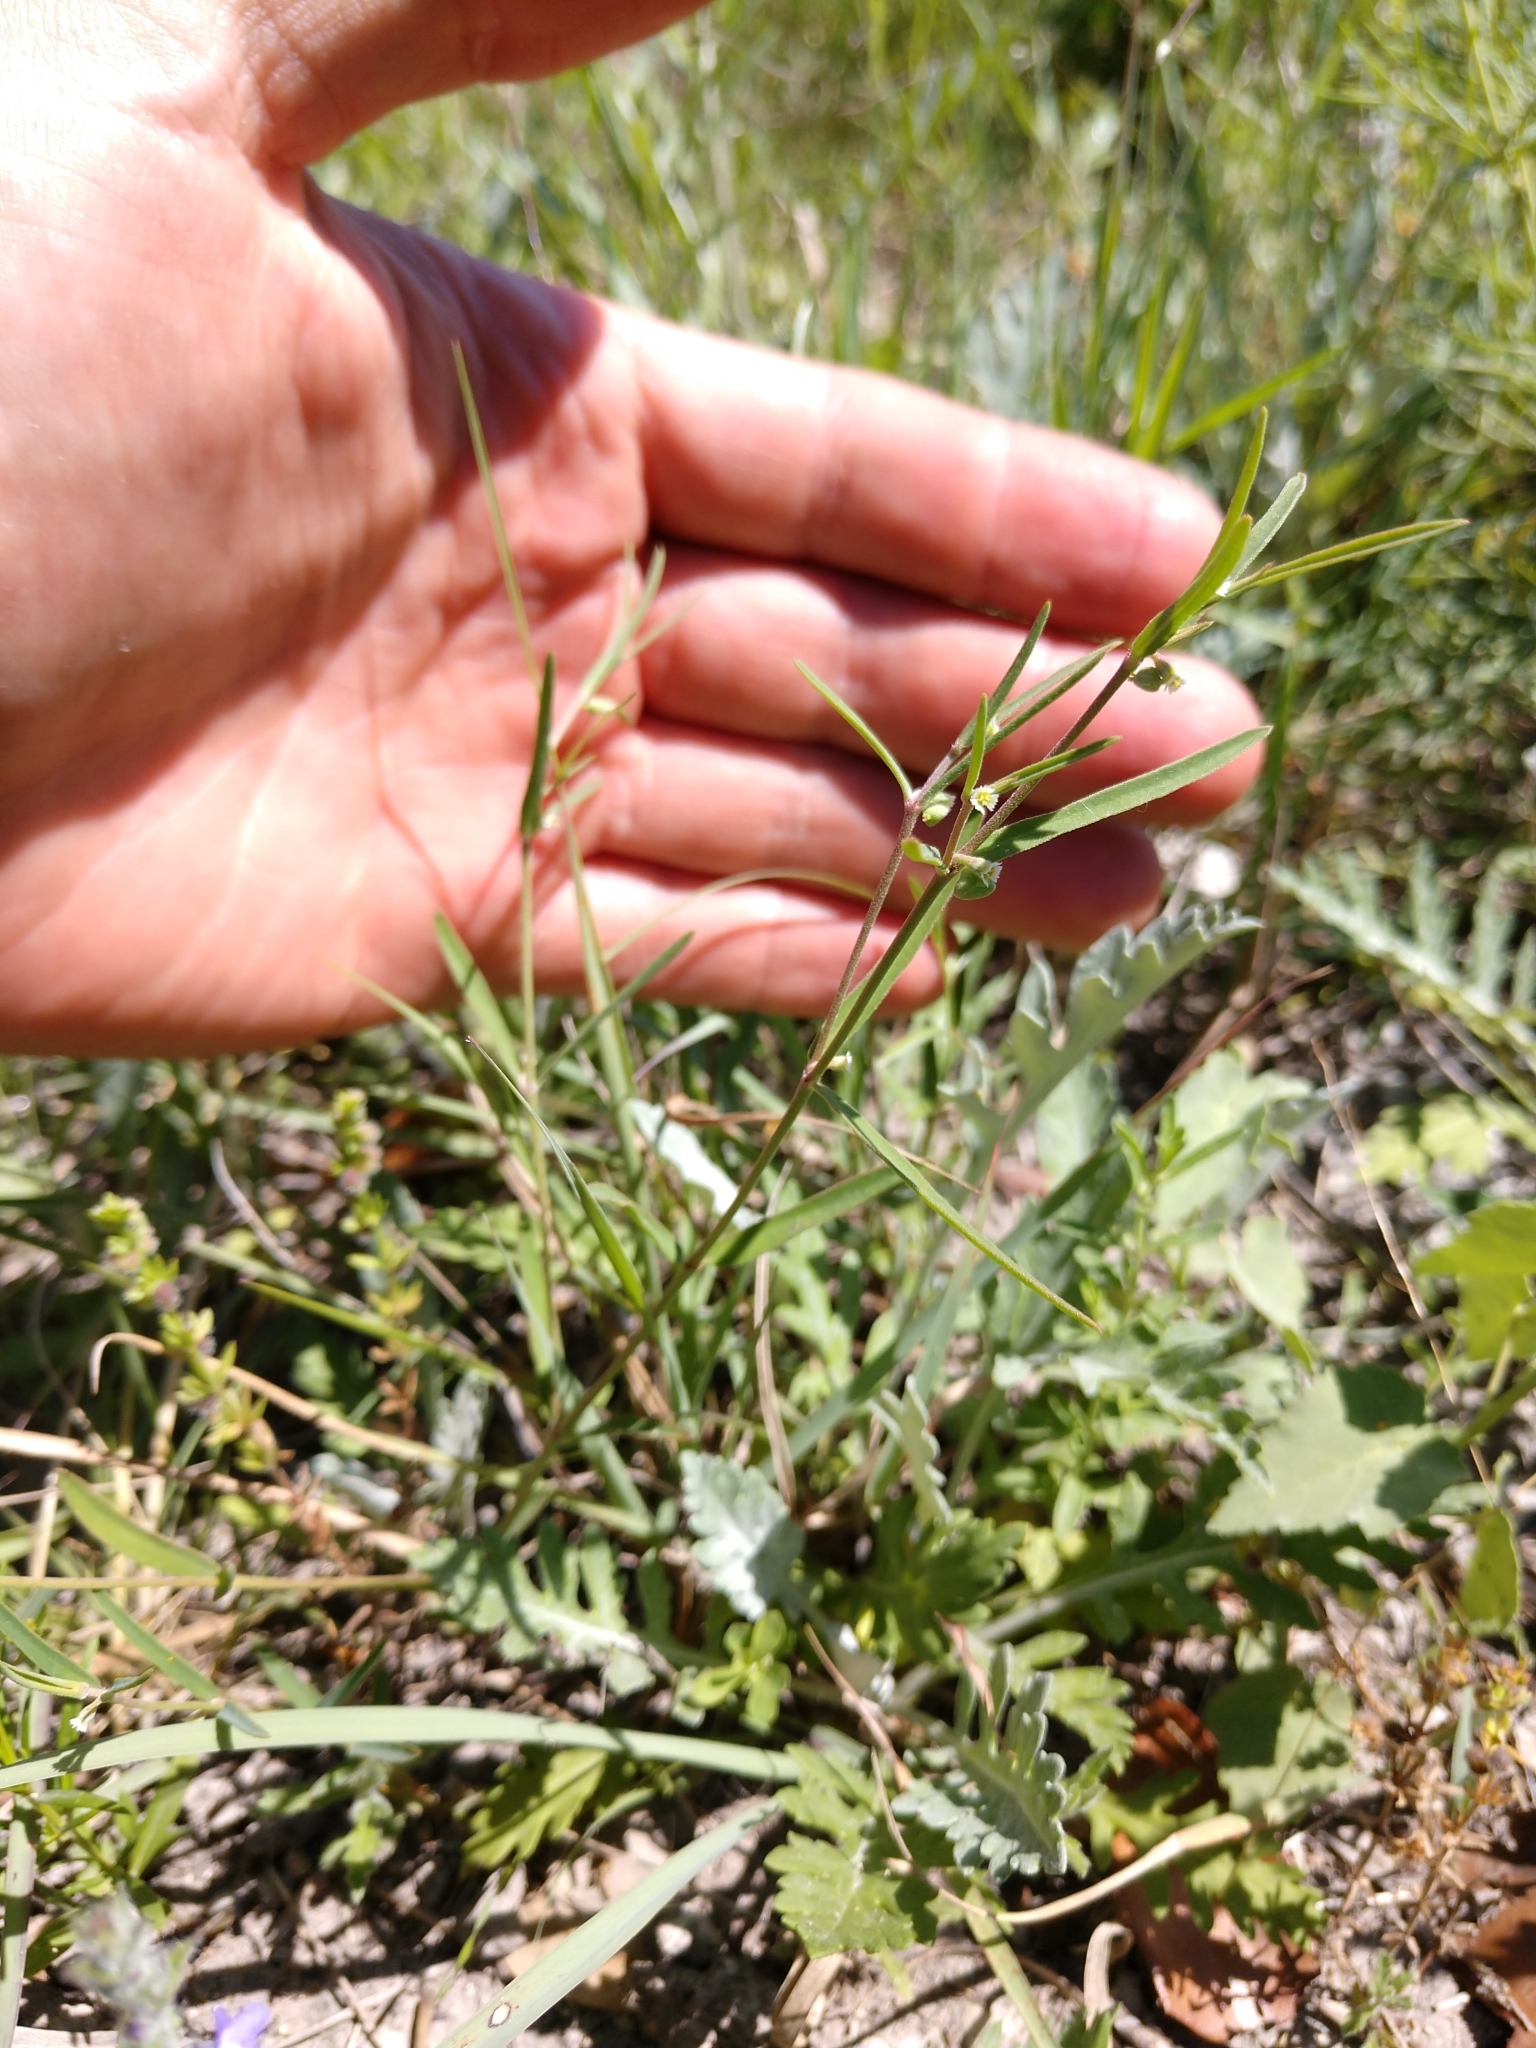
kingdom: Plantae
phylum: Tracheophyta
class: Magnoliopsida
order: Malpighiales
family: Euphorbiaceae
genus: Euphorbia
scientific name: Euphorbia angusta
